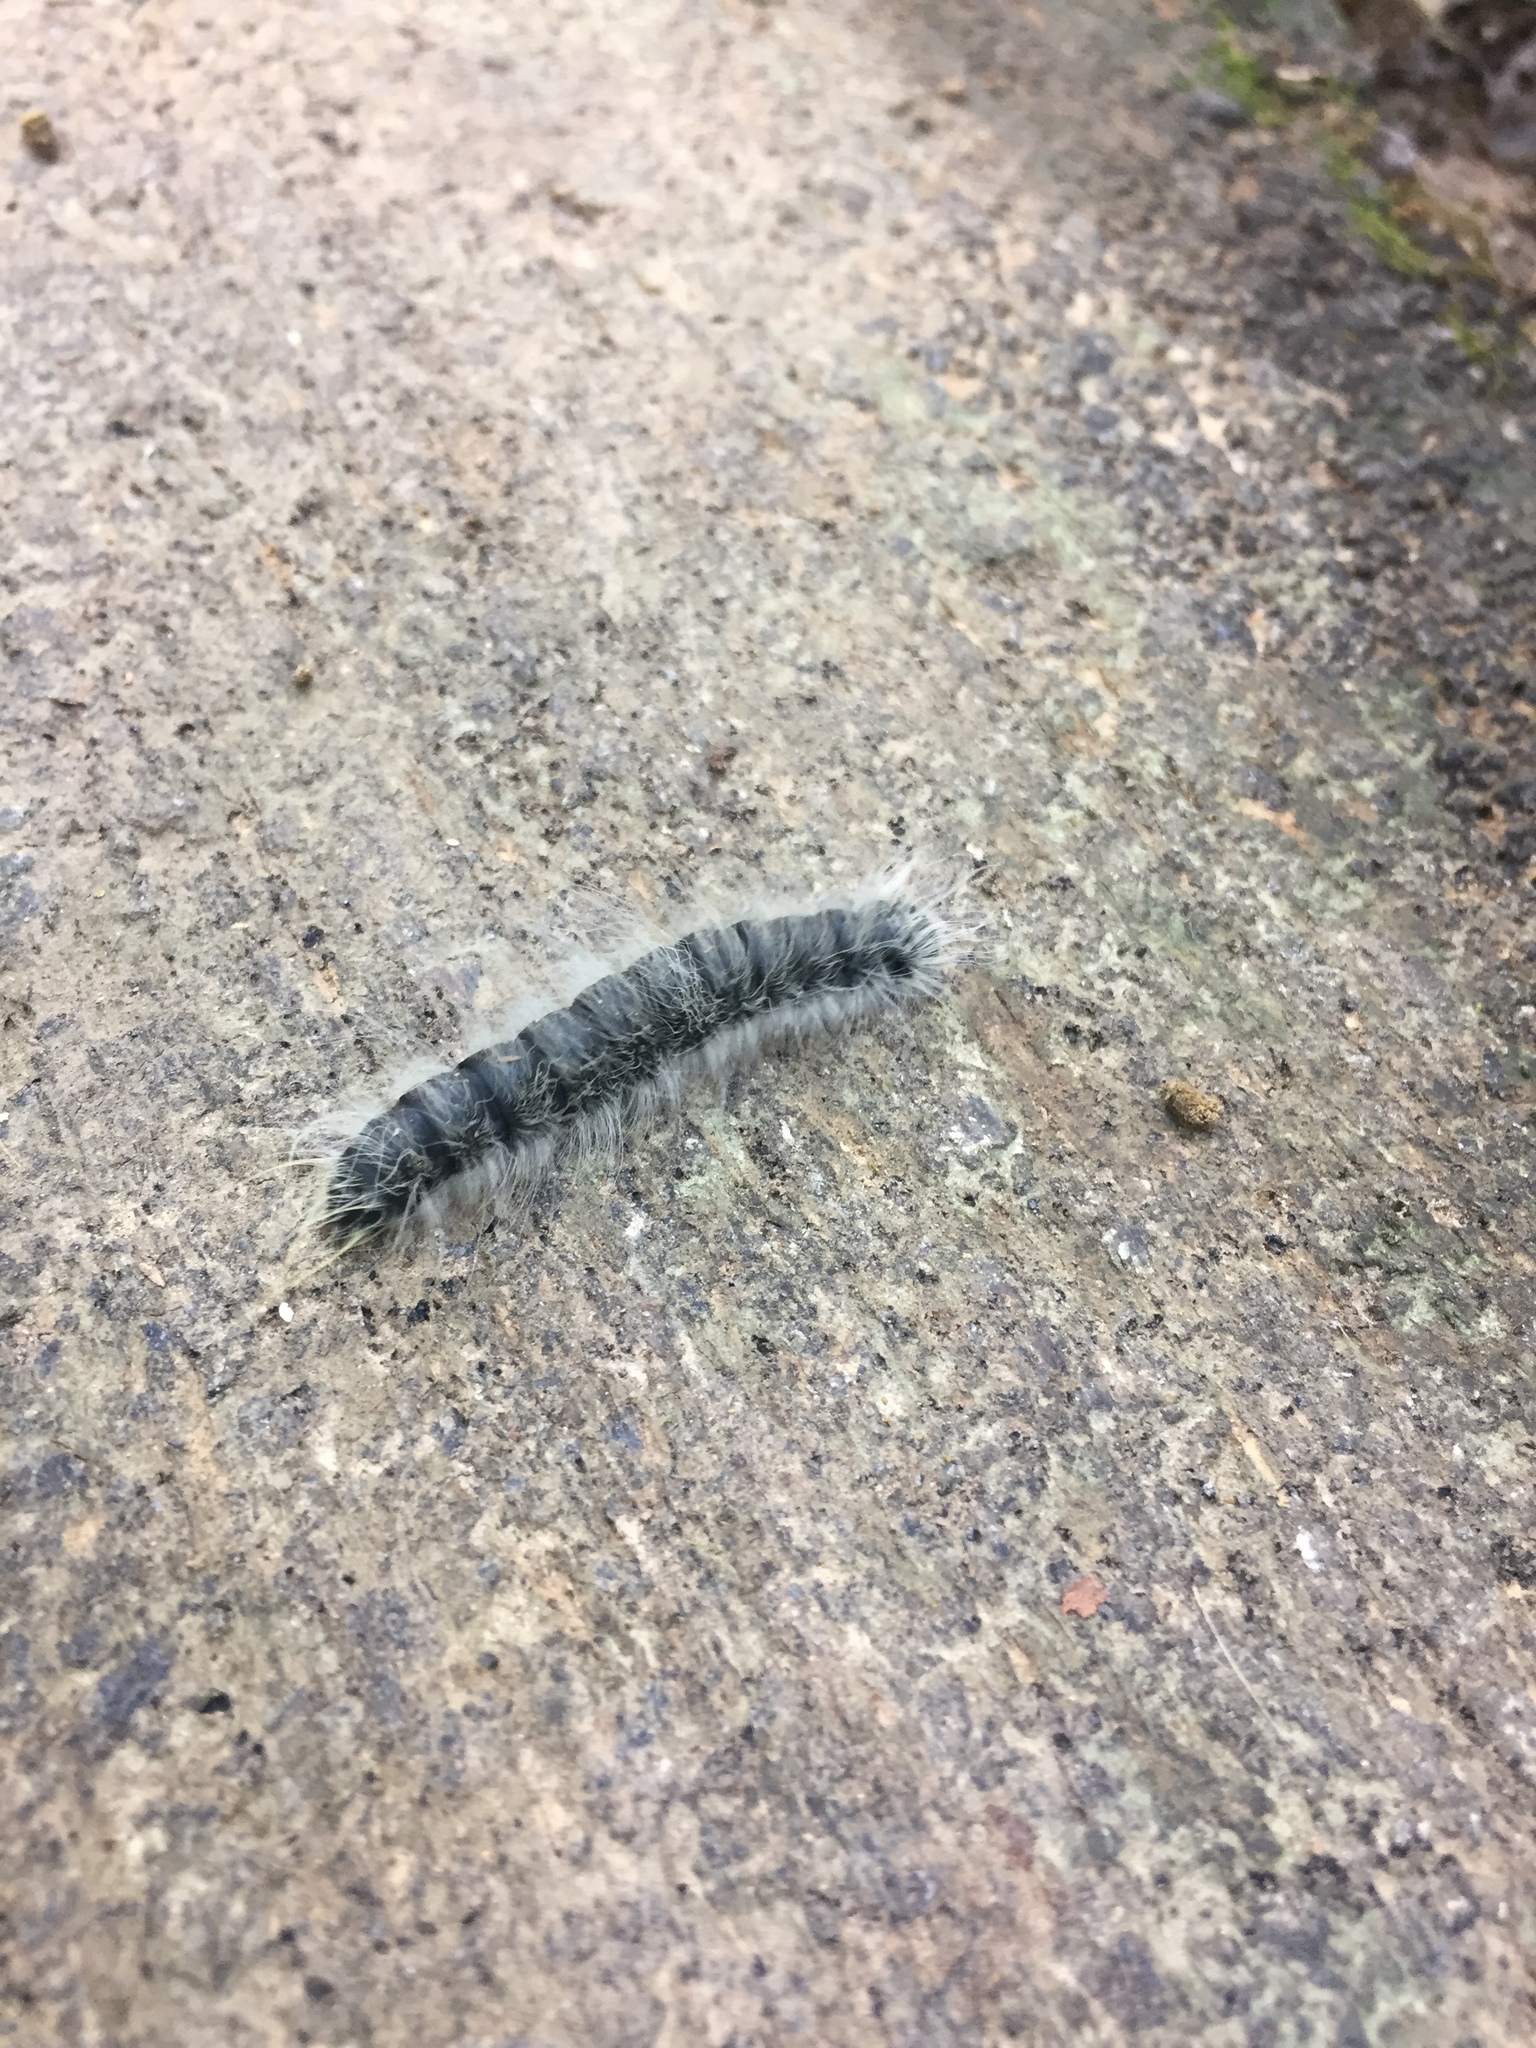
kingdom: Animalia
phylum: Arthropoda
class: Insecta
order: Lepidoptera
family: Notodontidae
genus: Datana
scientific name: Datana integerrima
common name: Walnut caterpillar
